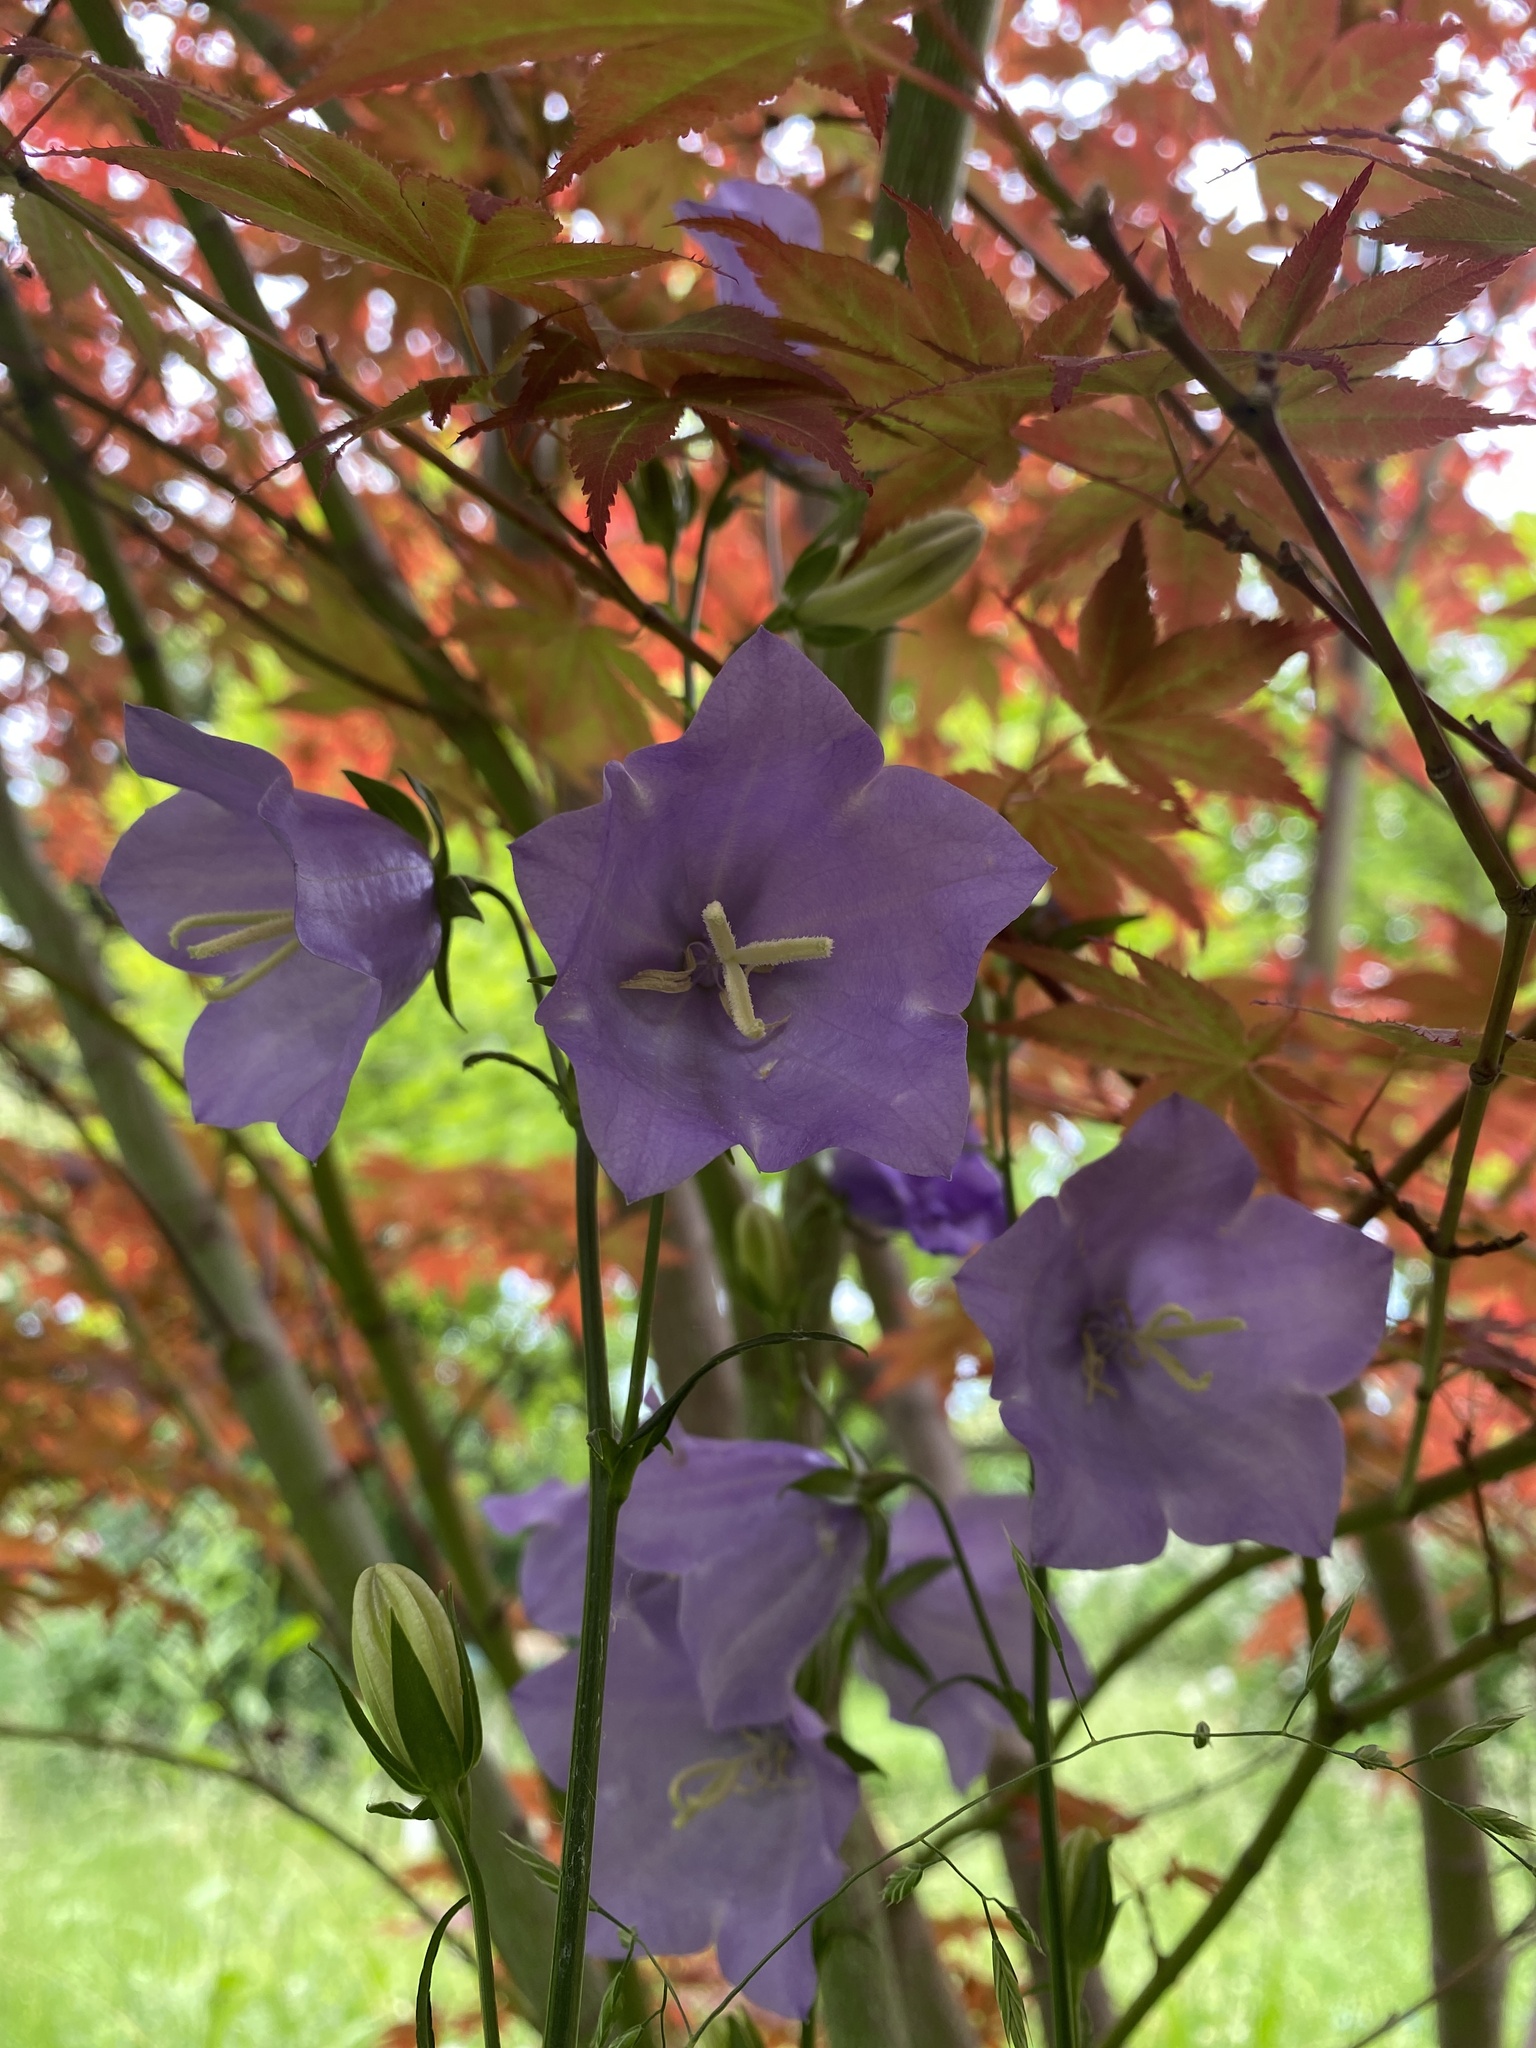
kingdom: Plantae
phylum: Tracheophyta
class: Magnoliopsida
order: Asterales
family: Campanulaceae
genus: Campanula
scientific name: Campanula persicifolia
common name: Peach-leaved bellflower
